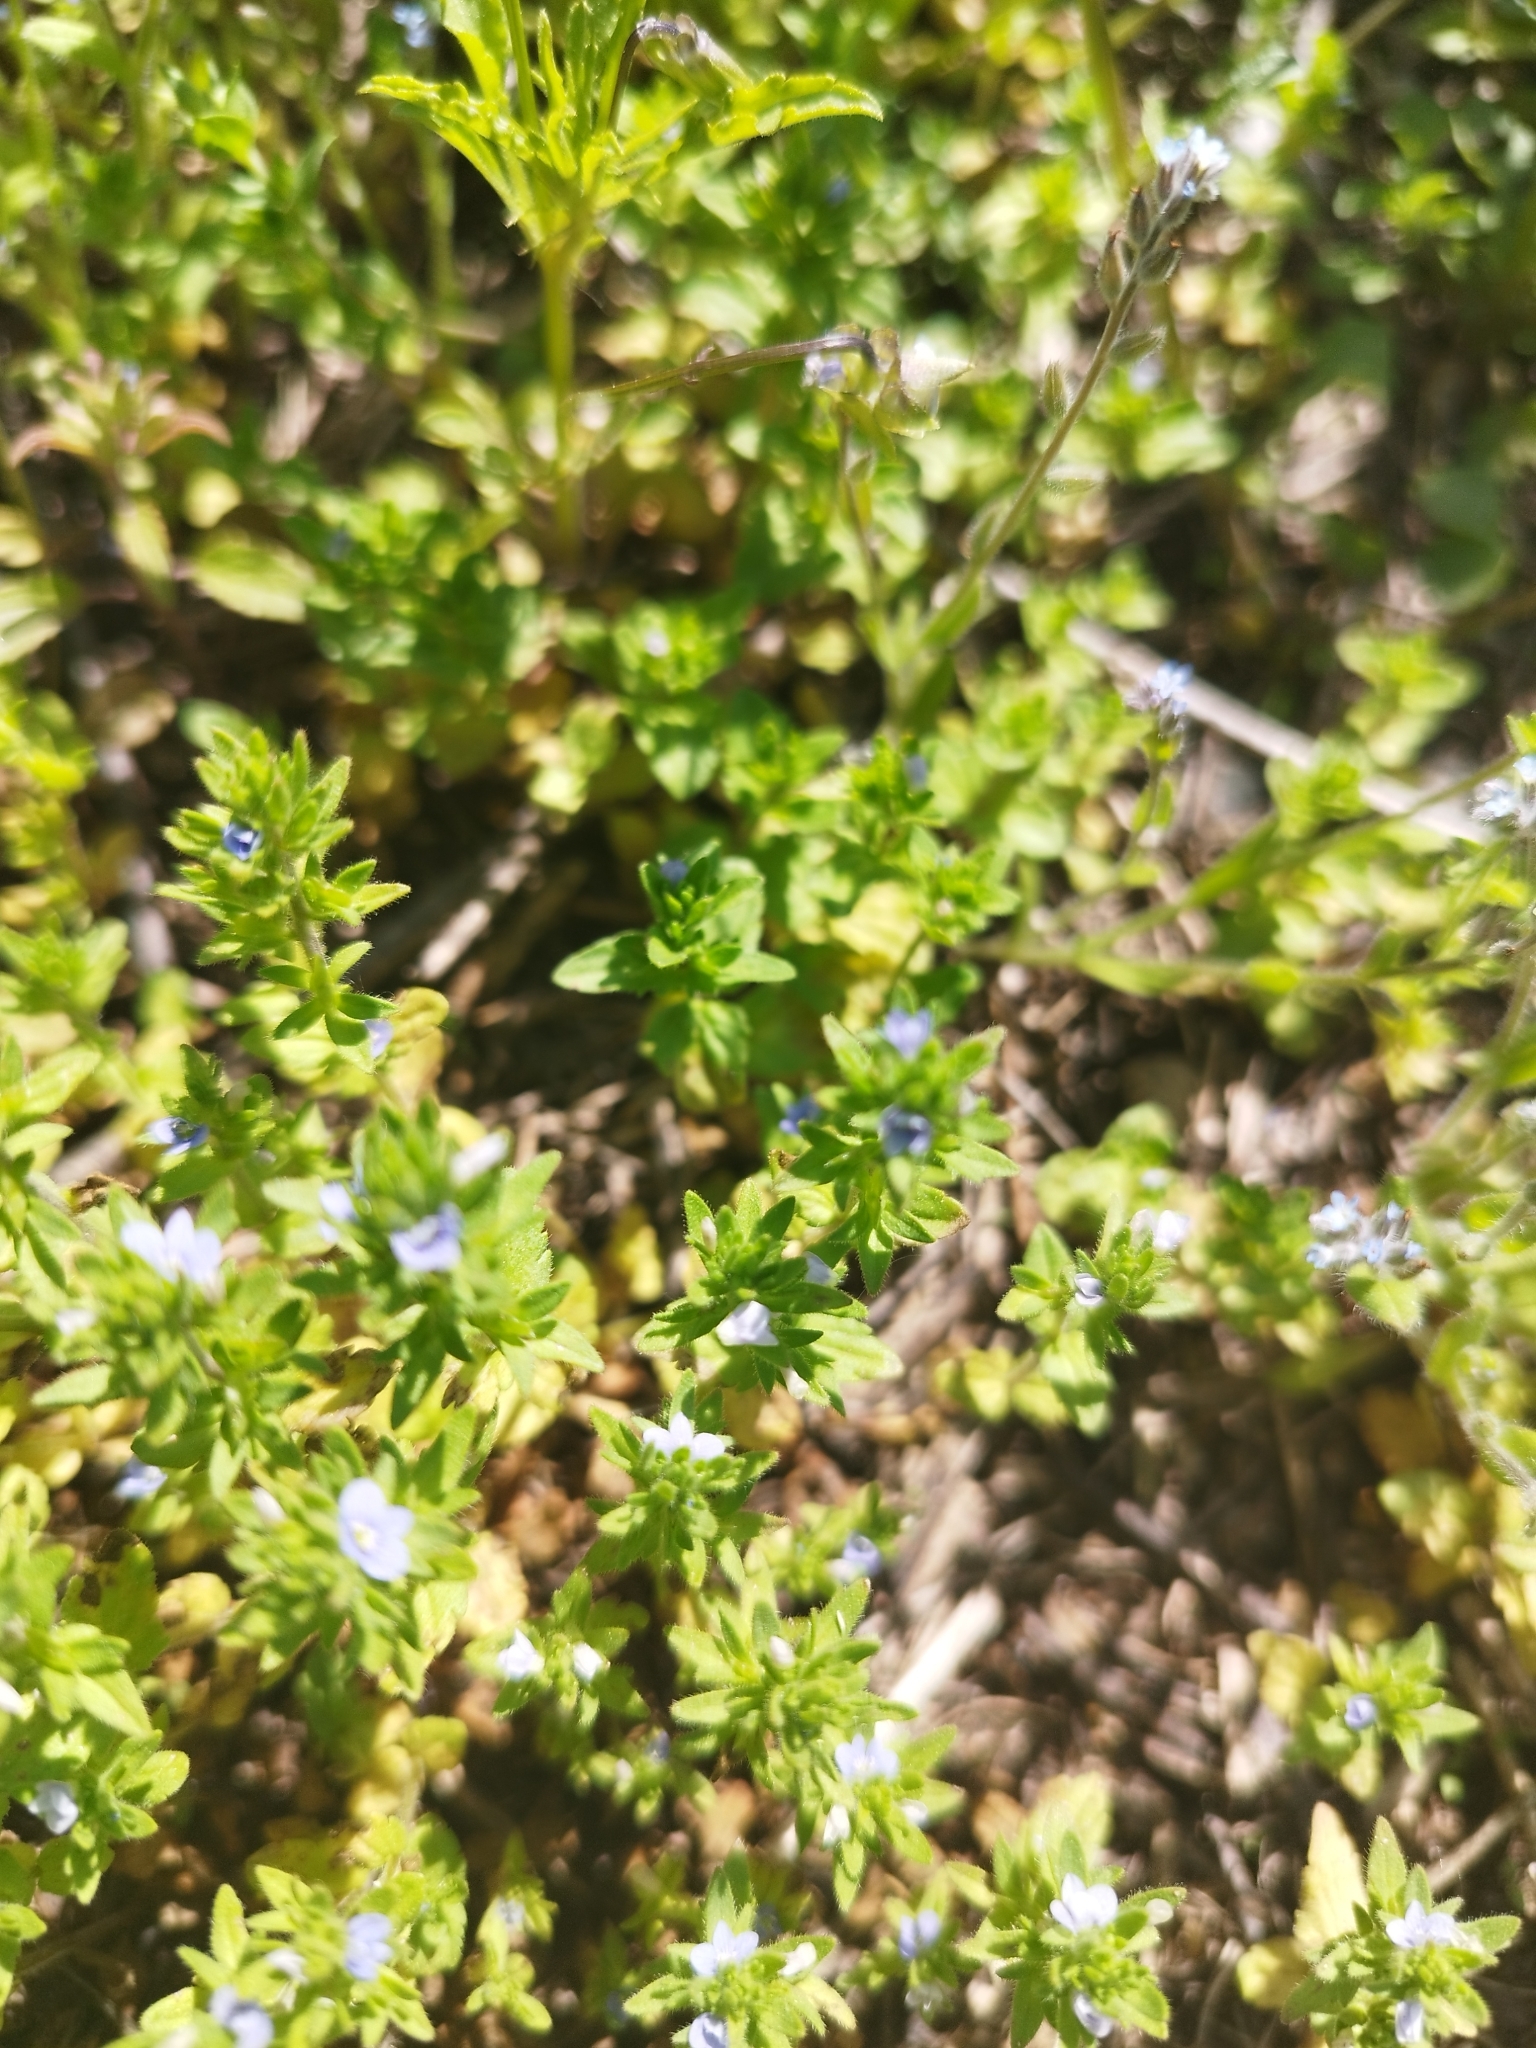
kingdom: Plantae
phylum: Tracheophyta
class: Magnoliopsida
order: Lamiales
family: Plantaginaceae
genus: Veronica
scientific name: Veronica arvensis
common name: Corn speedwell
